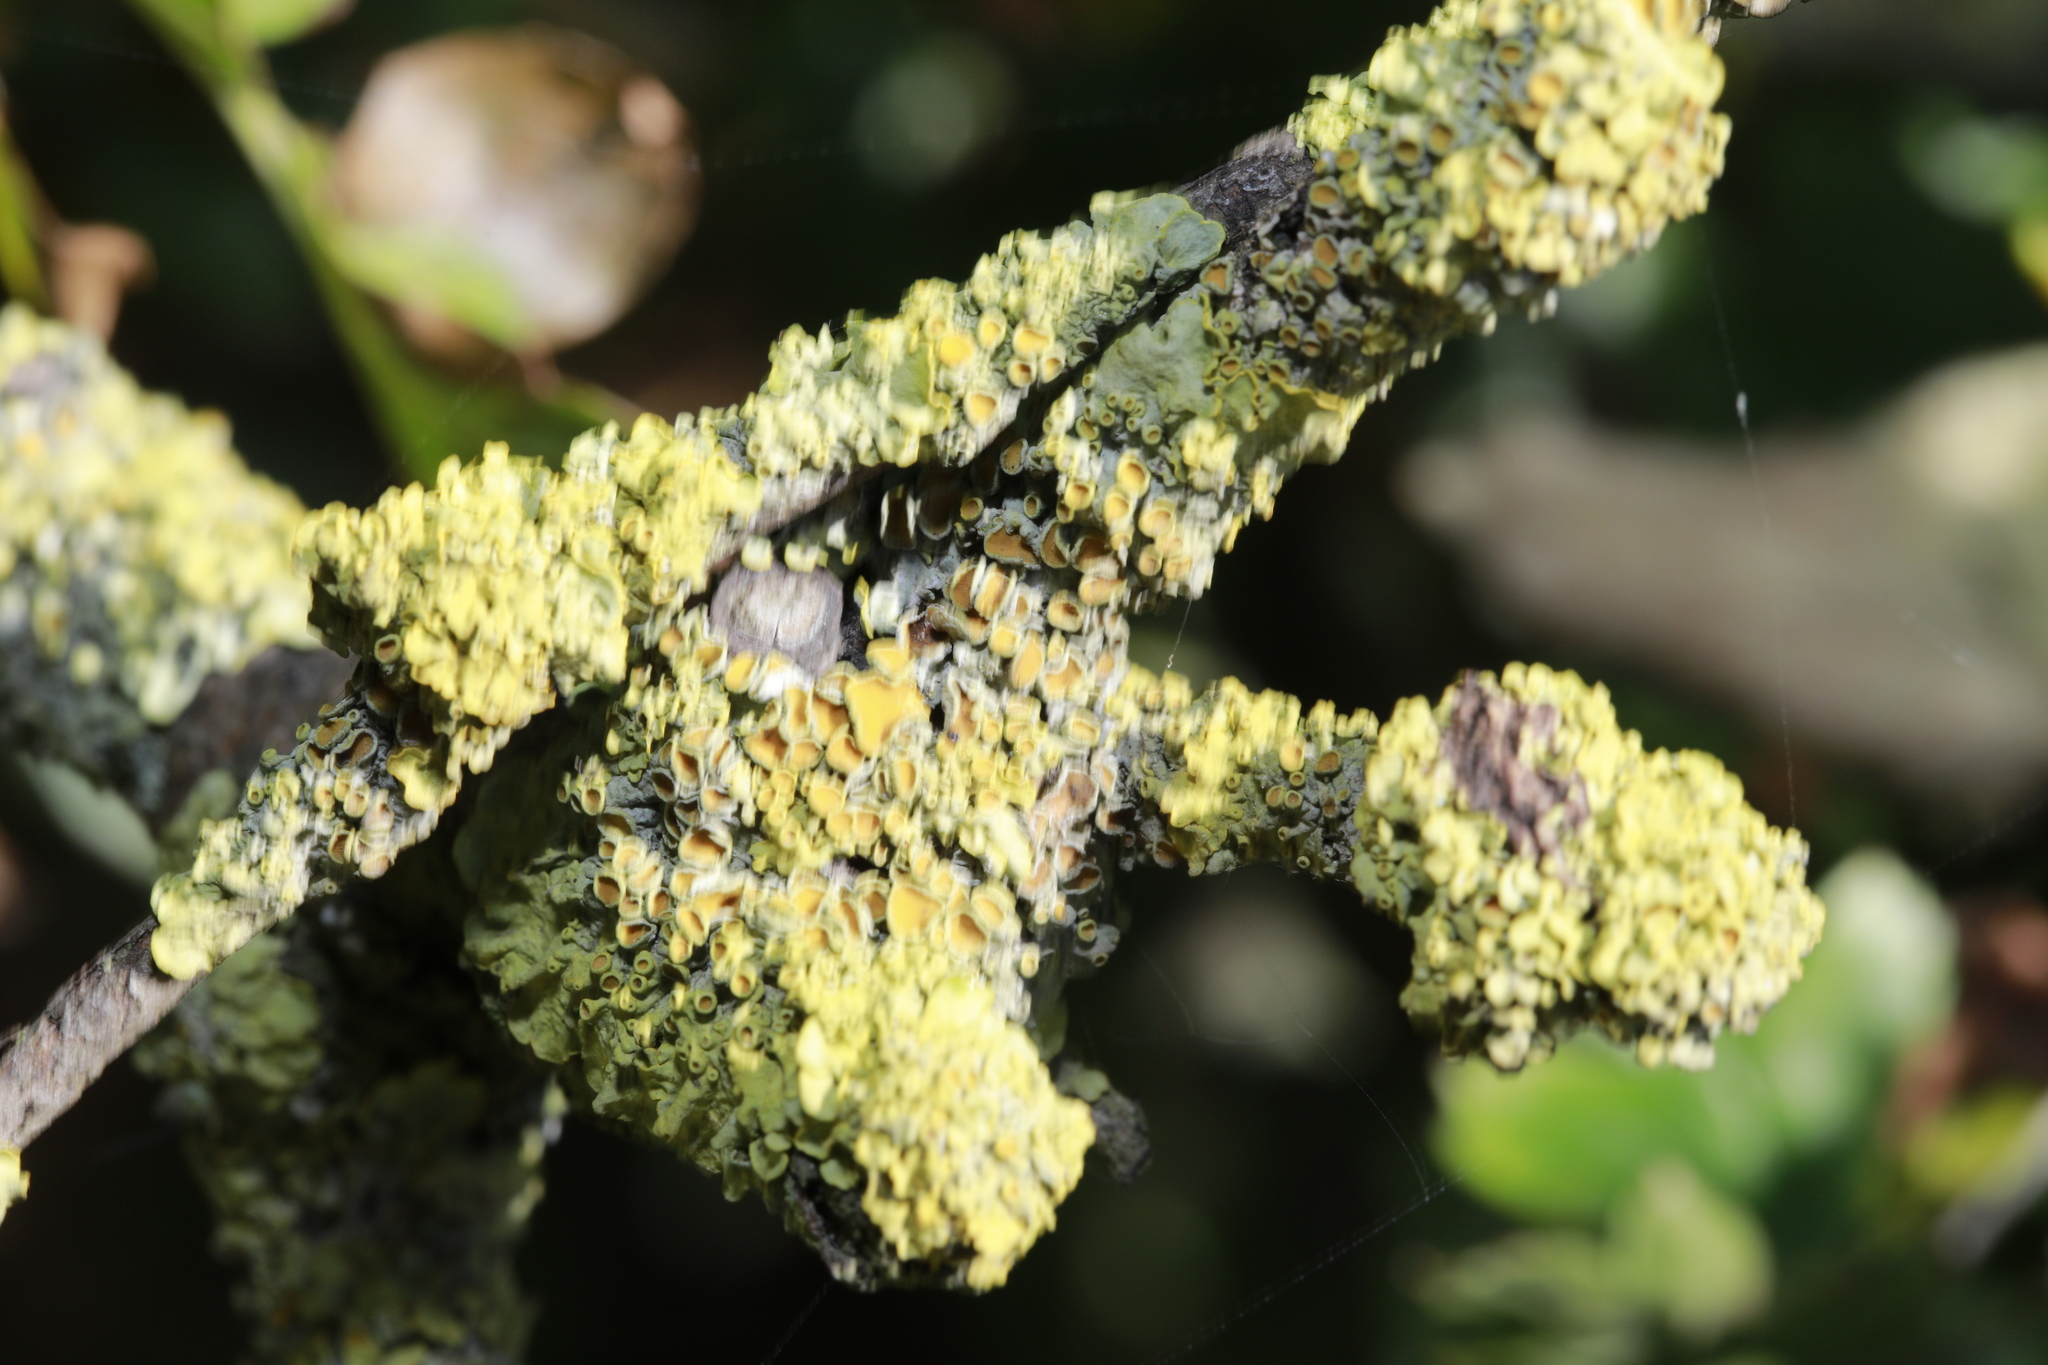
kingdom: Fungi
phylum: Ascomycota
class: Lecanoromycetes
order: Teloschistales
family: Teloschistaceae
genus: Xanthoria
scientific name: Xanthoria parietina
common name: Common orange lichen
